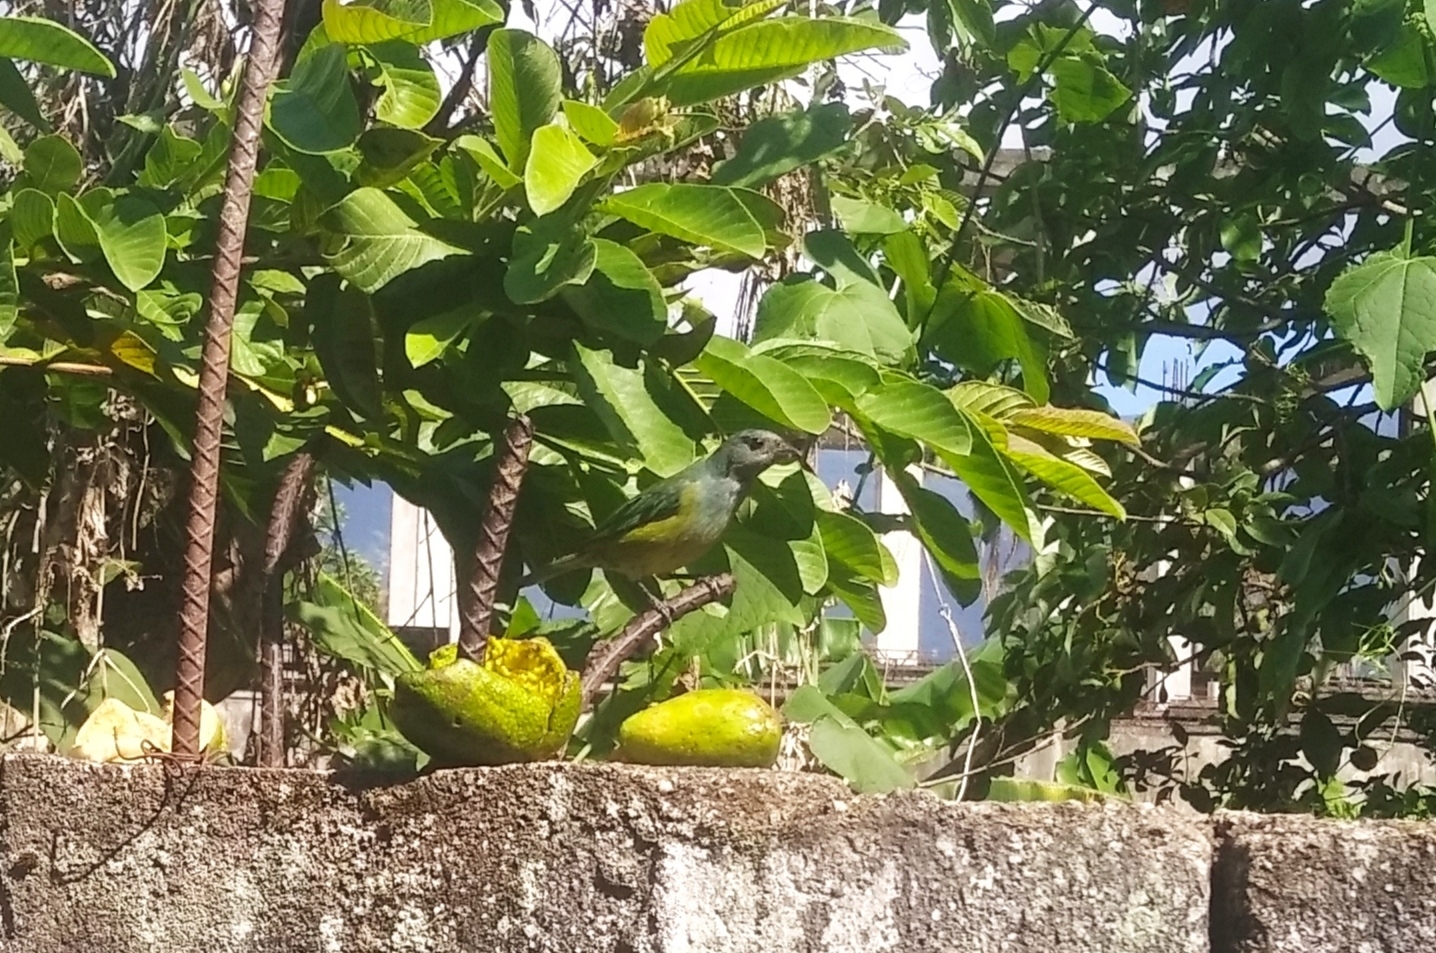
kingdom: Animalia
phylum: Chordata
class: Aves
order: Passeriformes
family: Thraupidae
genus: Stilpnia
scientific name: Stilpnia cyanoptera
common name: Black-headed tanager
